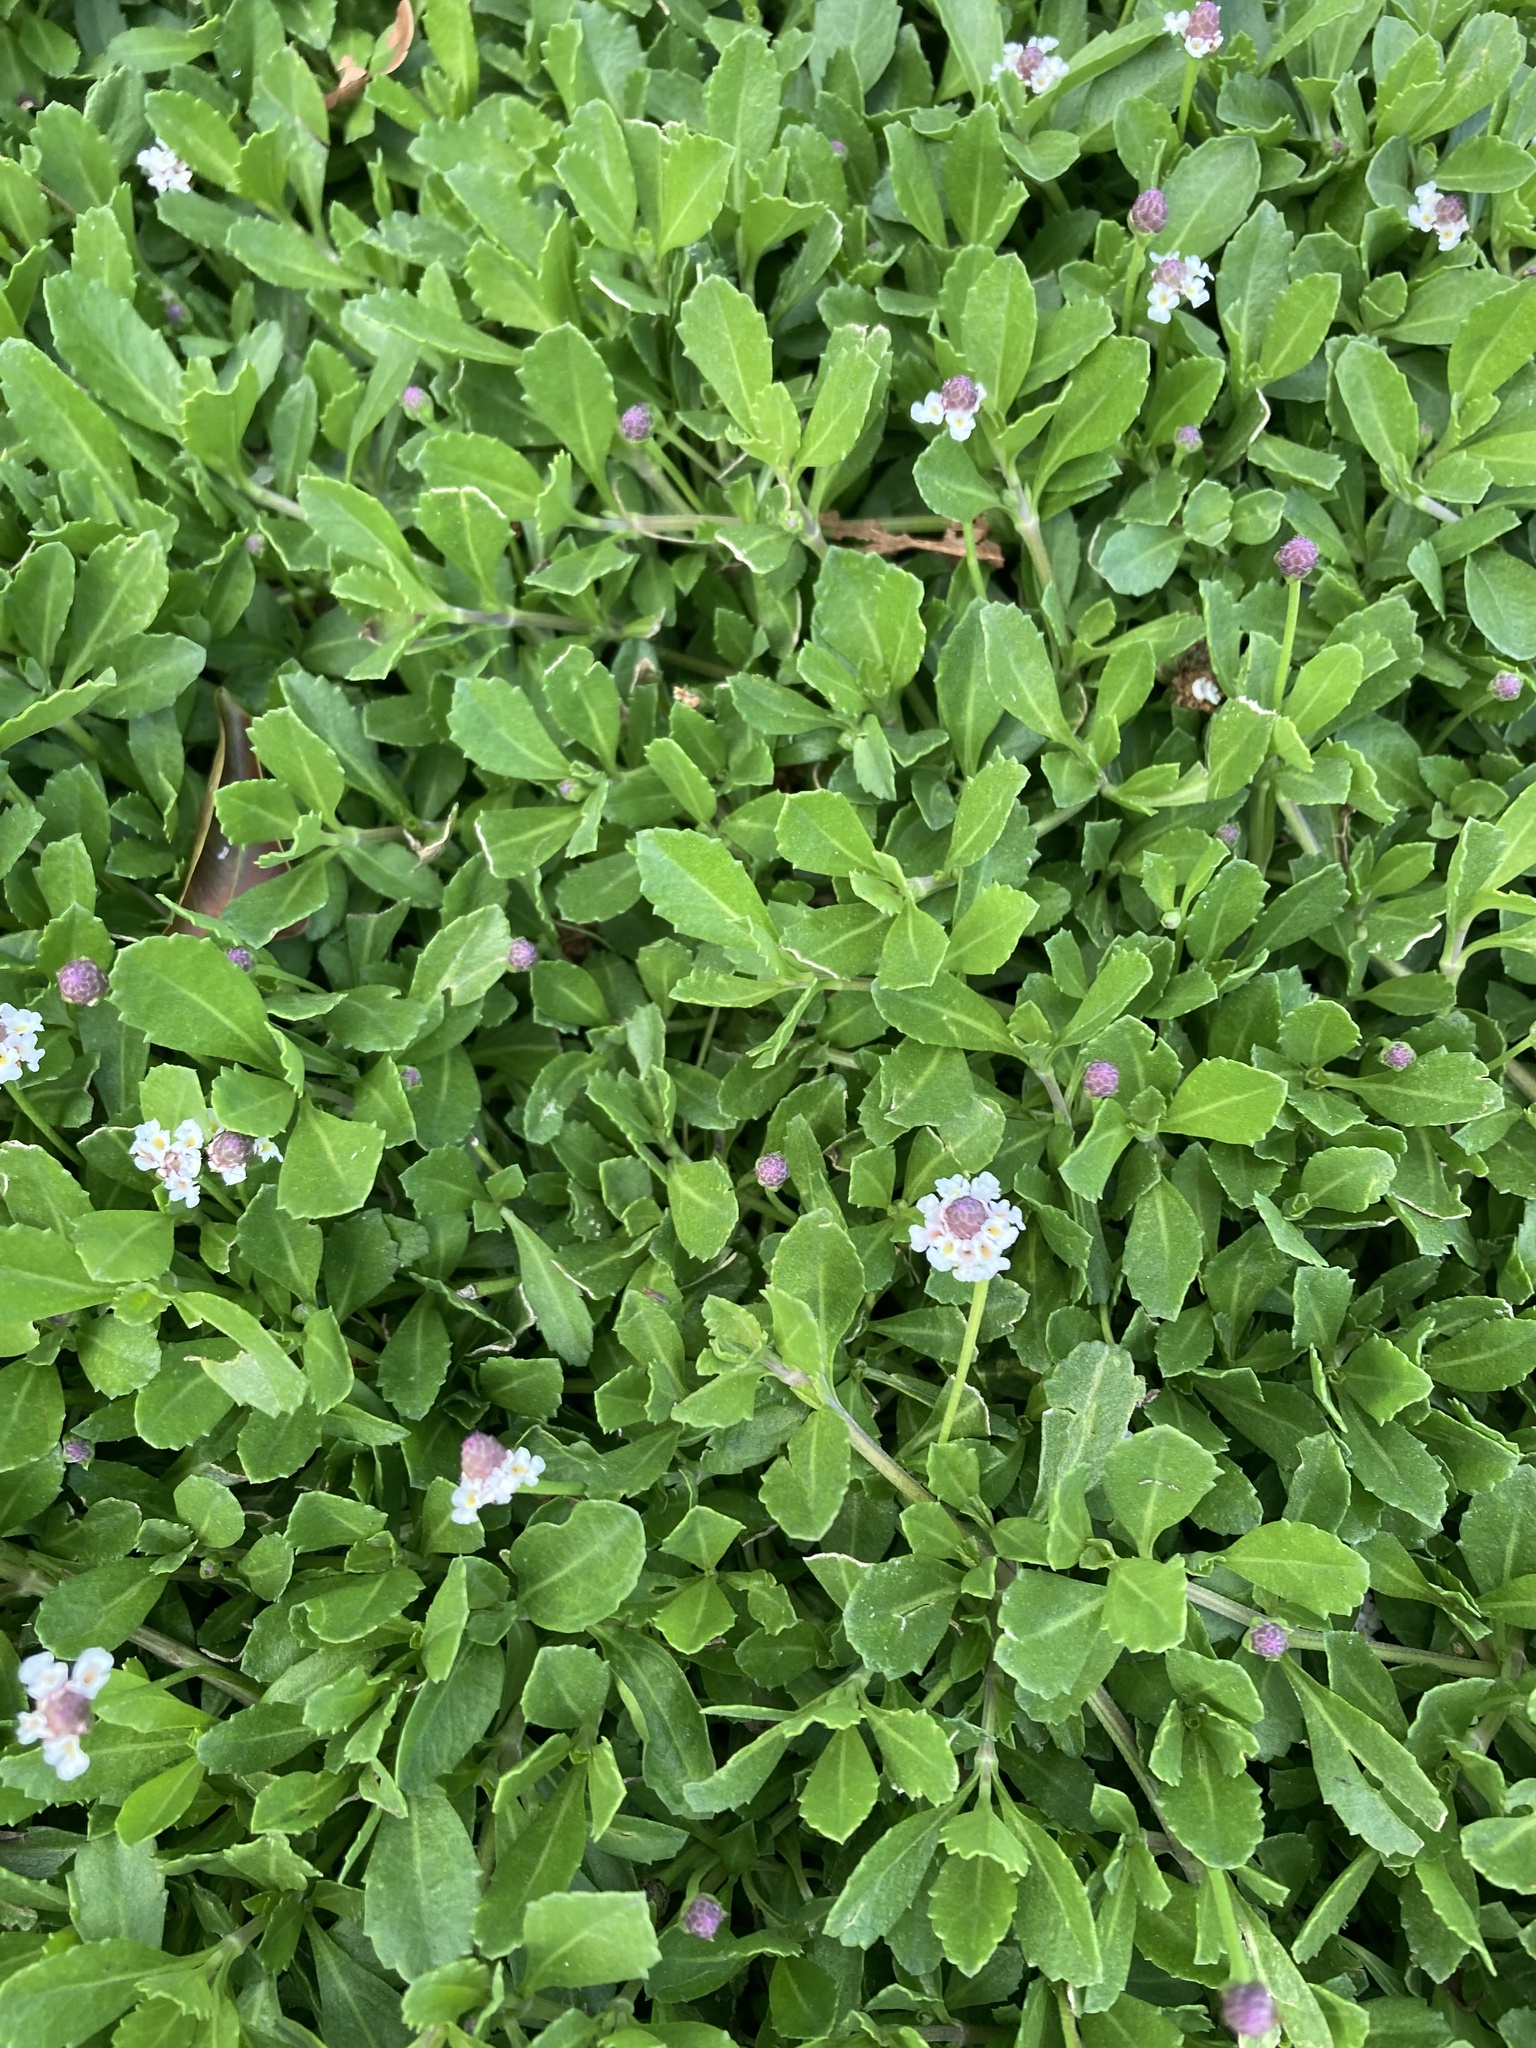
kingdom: Plantae
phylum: Tracheophyta
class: Magnoliopsida
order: Lamiales
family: Verbenaceae
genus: Phyla
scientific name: Phyla nodiflora
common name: Frogfruit
